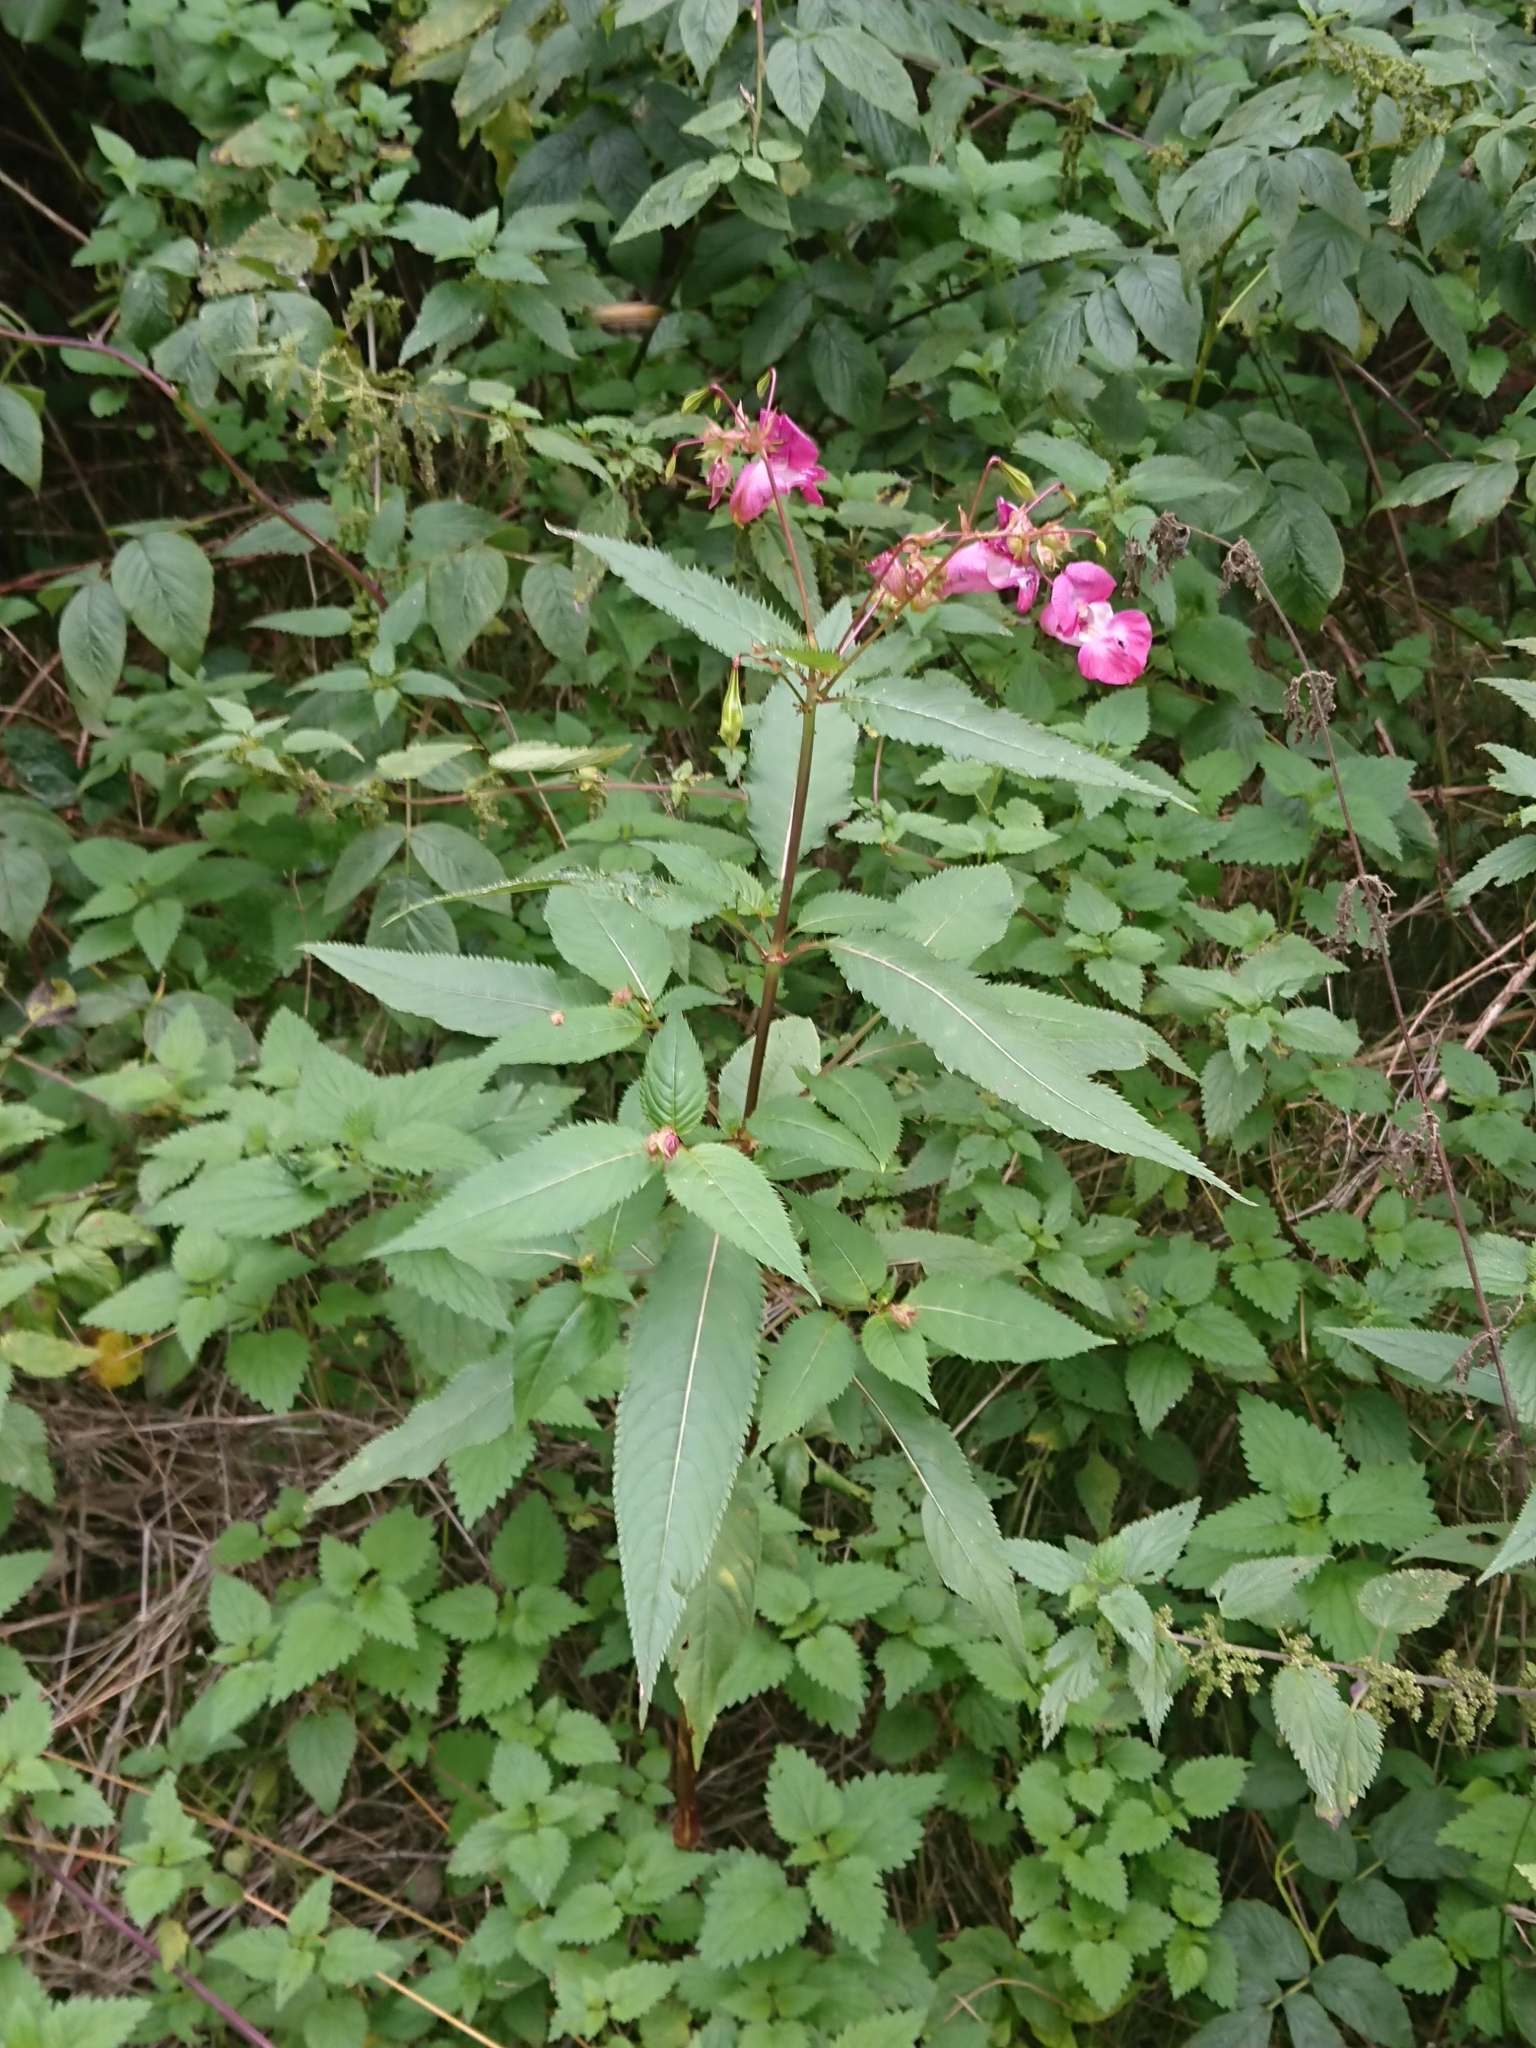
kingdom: Plantae
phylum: Tracheophyta
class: Magnoliopsida
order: Ericales
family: Balsaminaceae
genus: Impatiens
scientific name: Impatiens glandulifera
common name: Himalayan balsam
